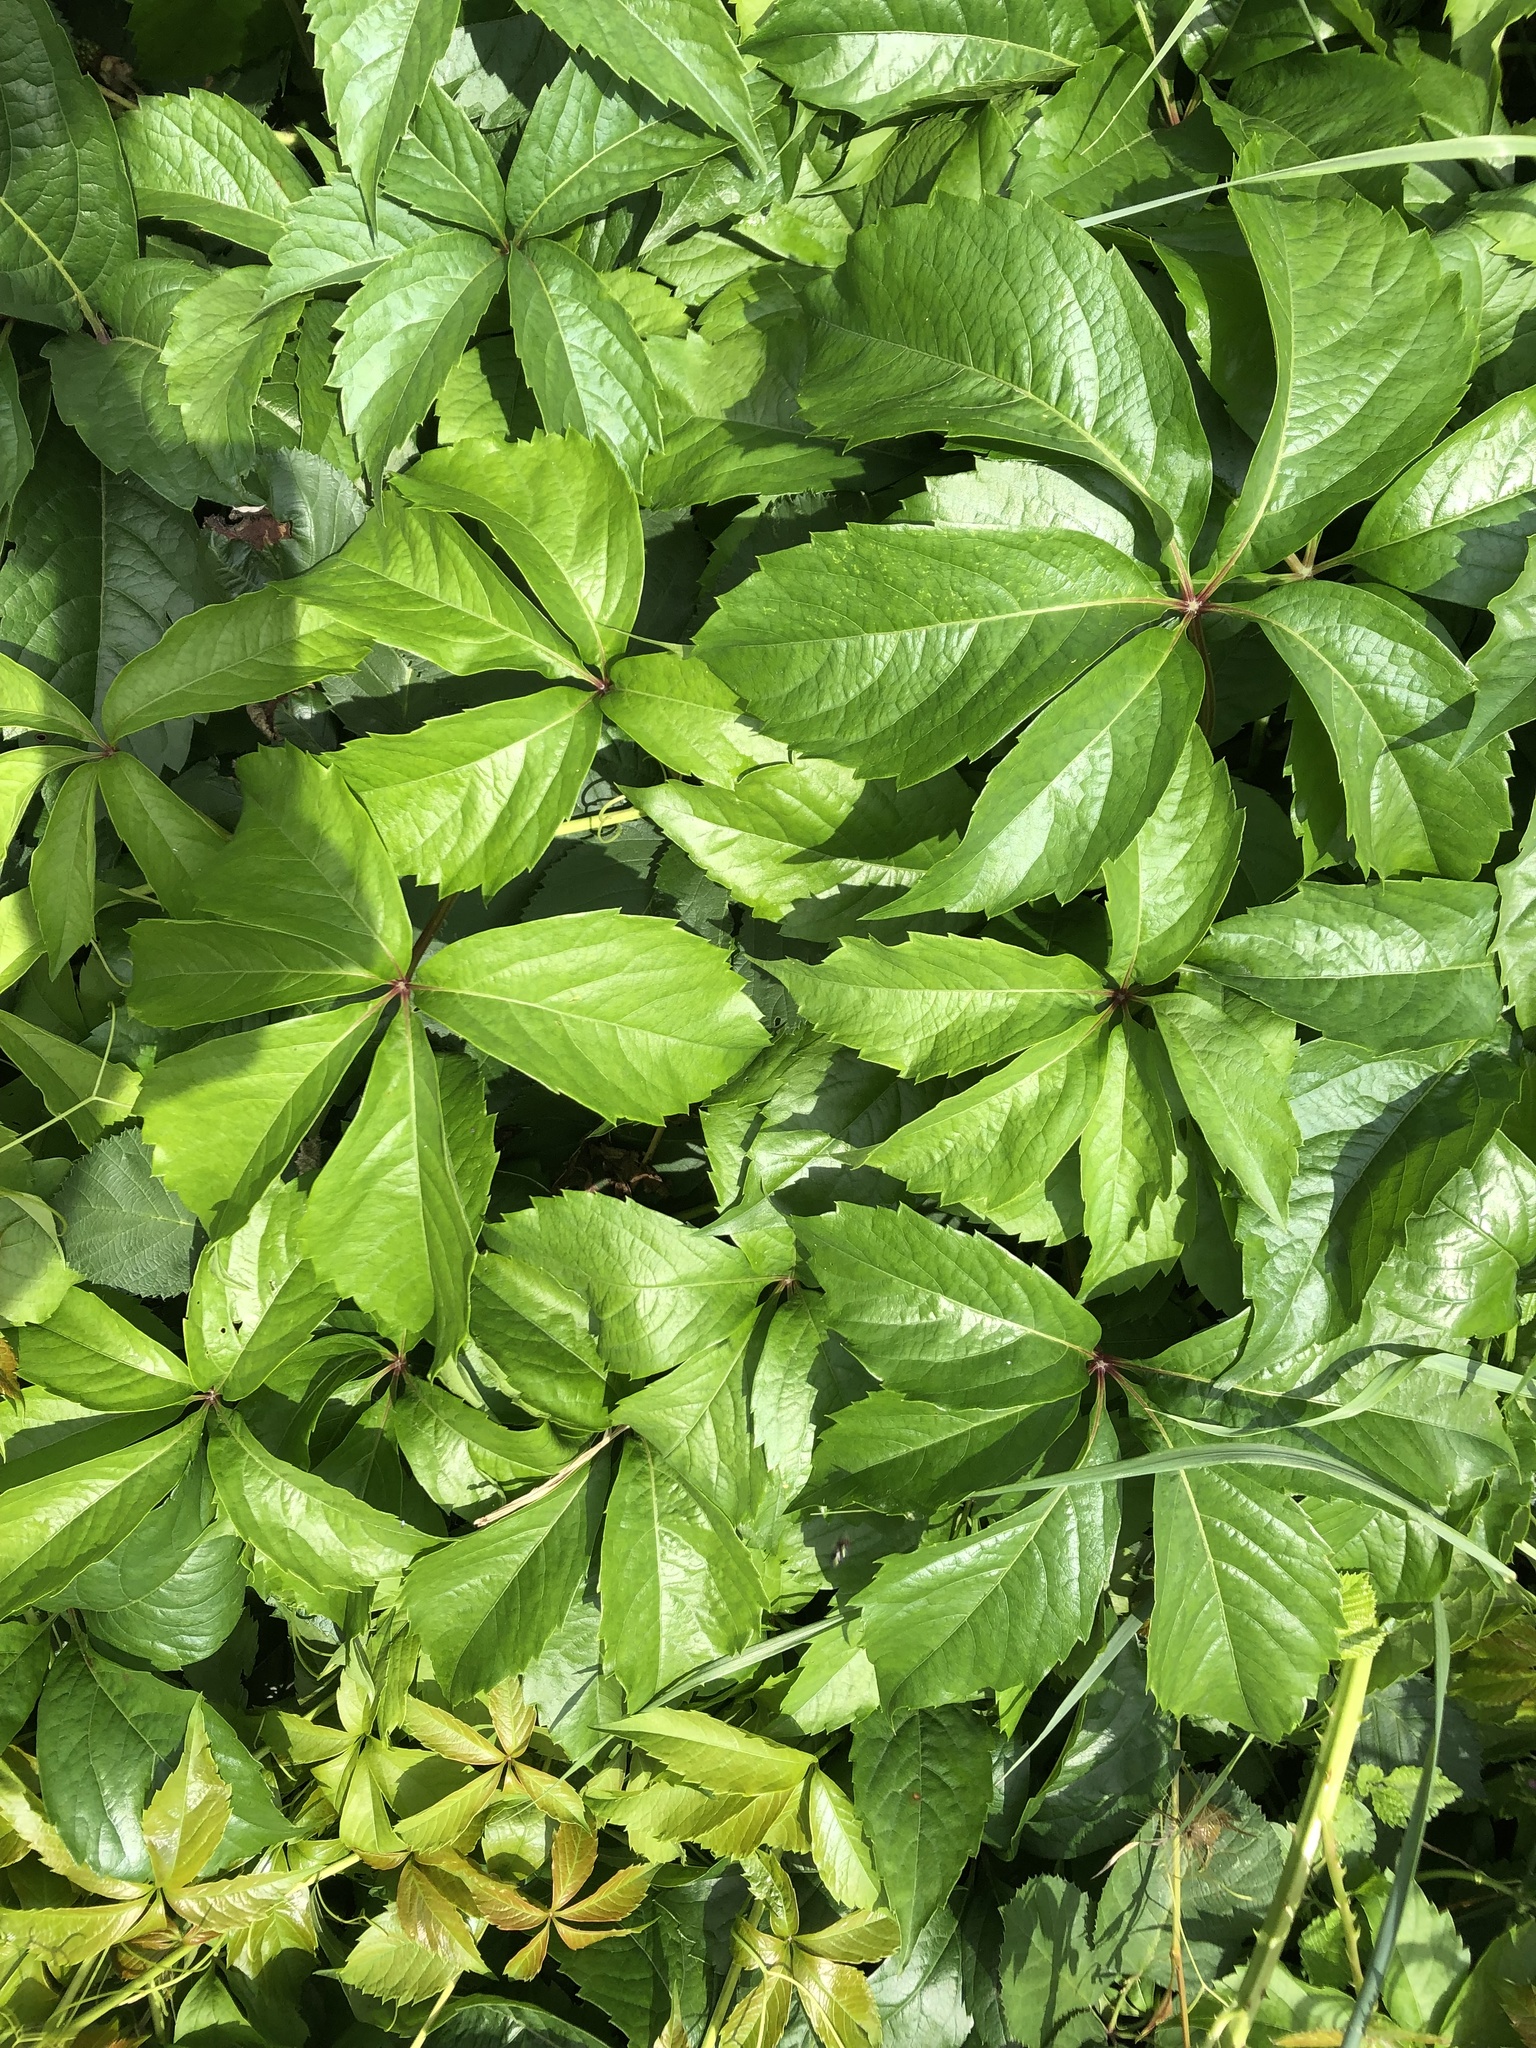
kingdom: Plantae
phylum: Tracheophyta
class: Magnoliopsida
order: Vitales
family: Vitaceae
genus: Parthenocissus
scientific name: Parthenocissus quinquefolia
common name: Virginia-creeper
